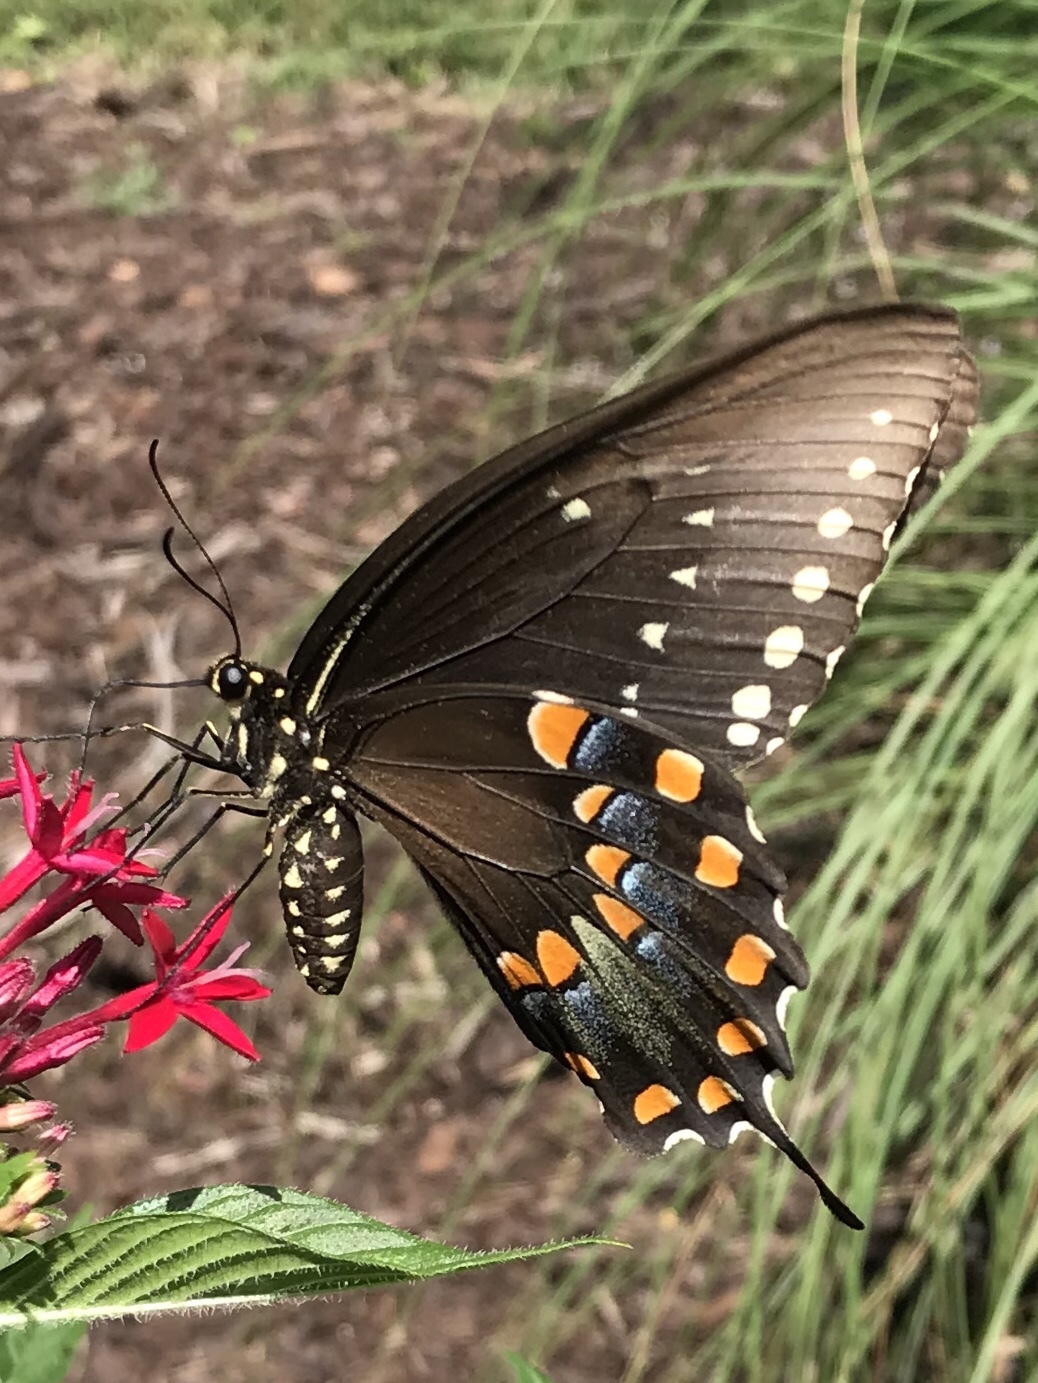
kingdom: Animalia
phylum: Arthropoda
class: Insecta
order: Lepidoptera
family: Papilionidae
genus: Papilio
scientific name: Papilio troilus
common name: Spicebush swallowtail
